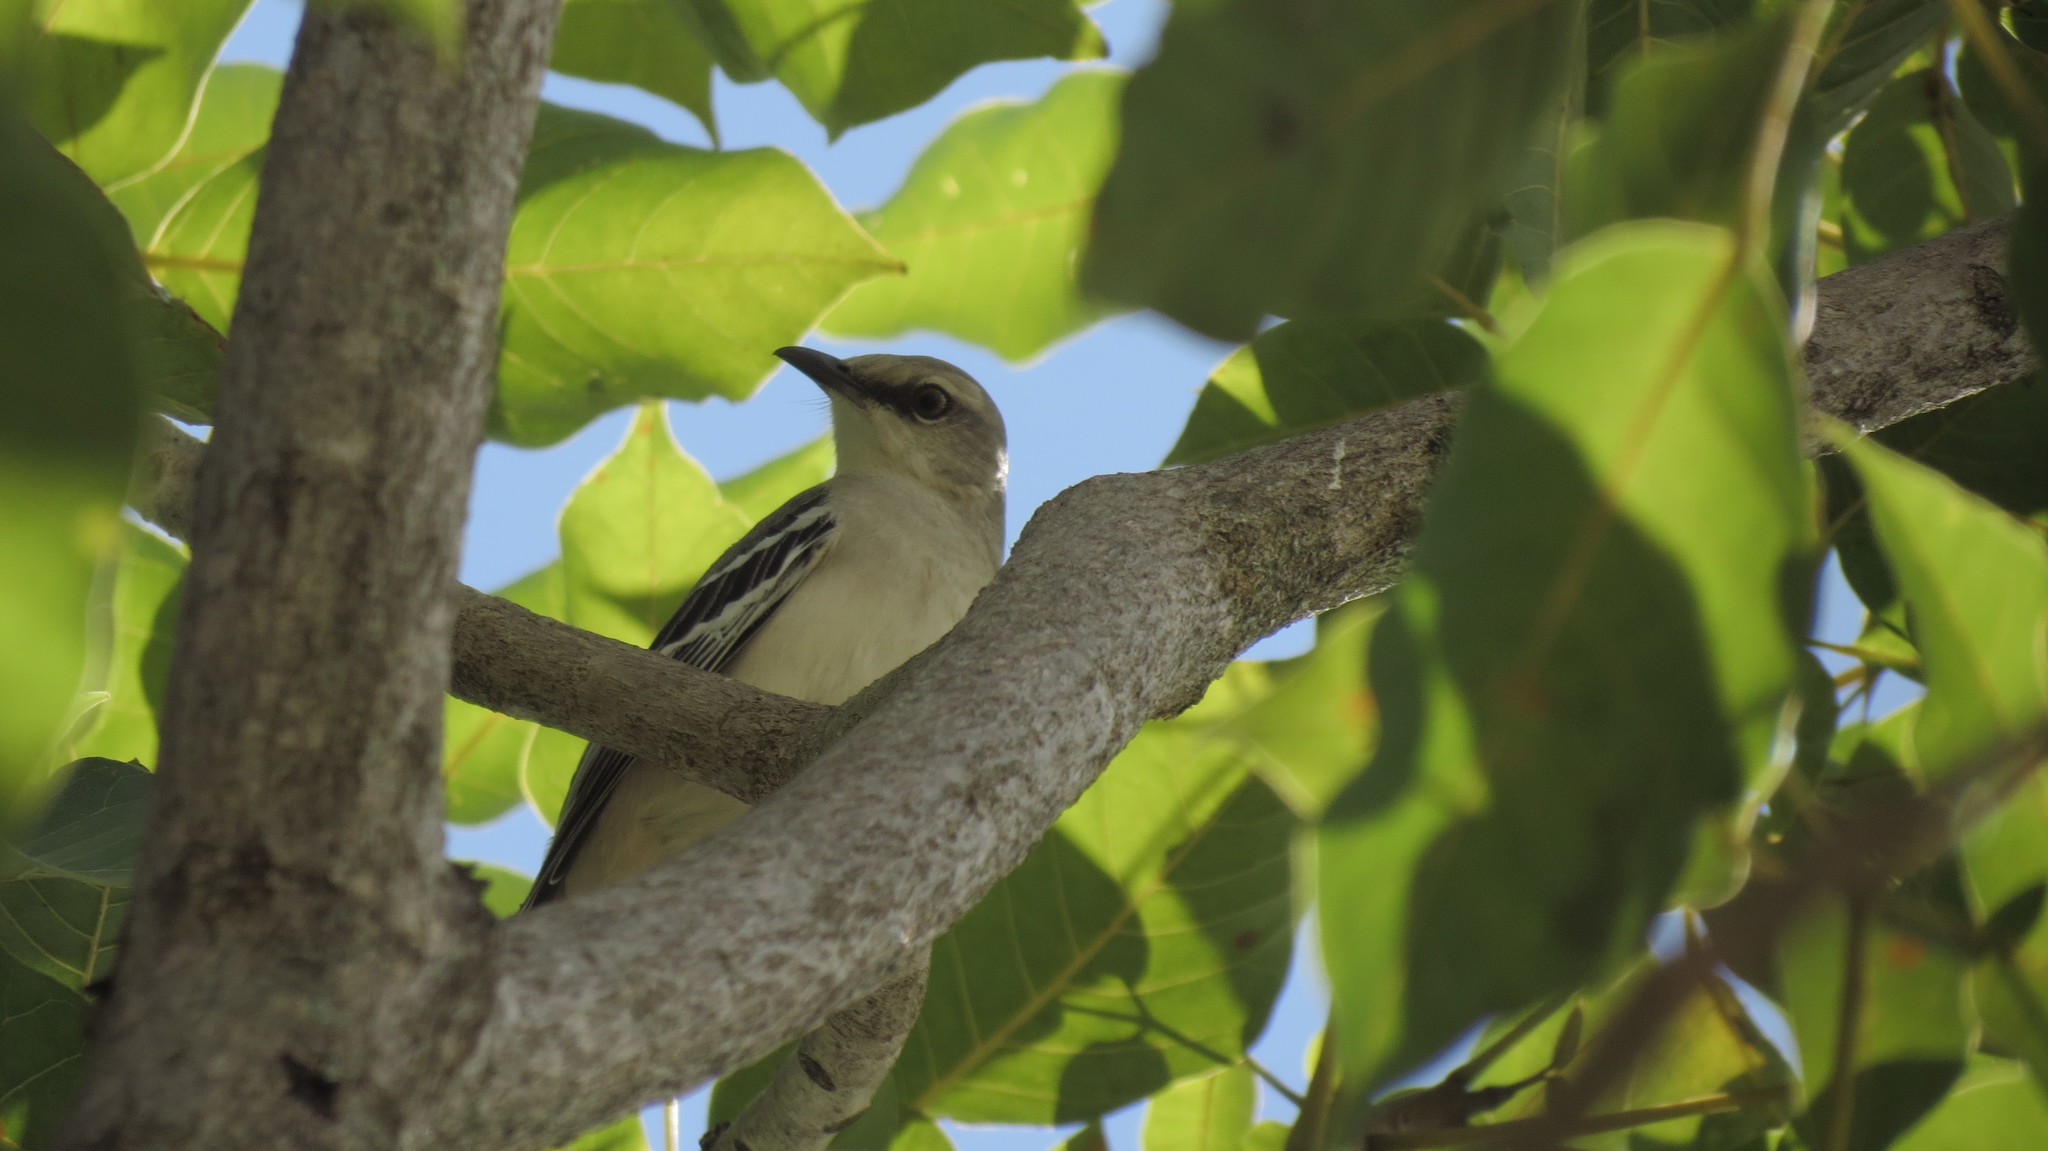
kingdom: Animalia
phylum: Chordata
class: Aves
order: Passeriformes
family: Mimidae
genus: Mimus
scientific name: Mimus gilvus
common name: Tropical mockingbird
